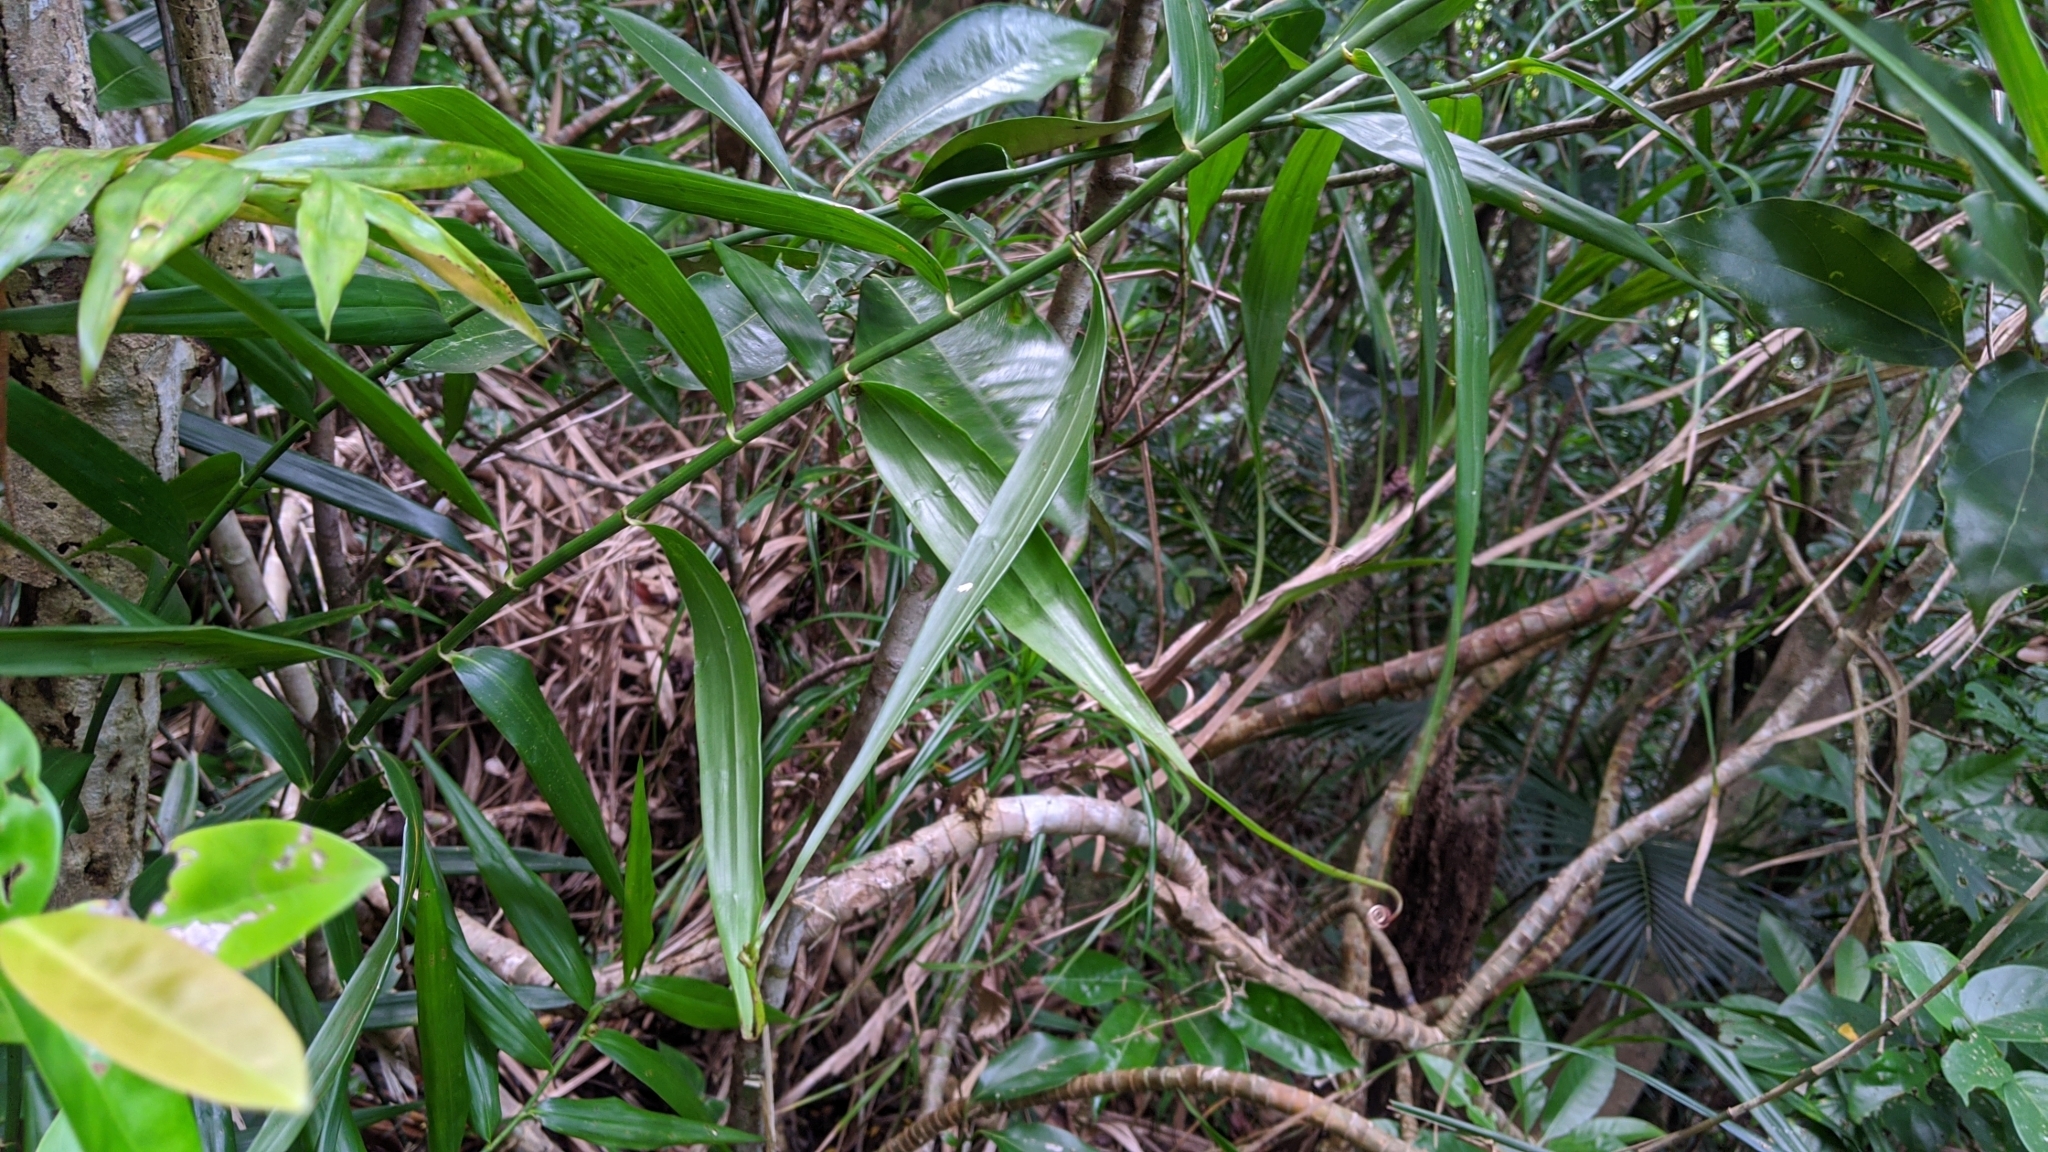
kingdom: Plantae
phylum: Tracheophyta
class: Liliopsida
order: Poales
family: Flagellariaceae
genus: Flagellaria
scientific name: Flagellaria indica
